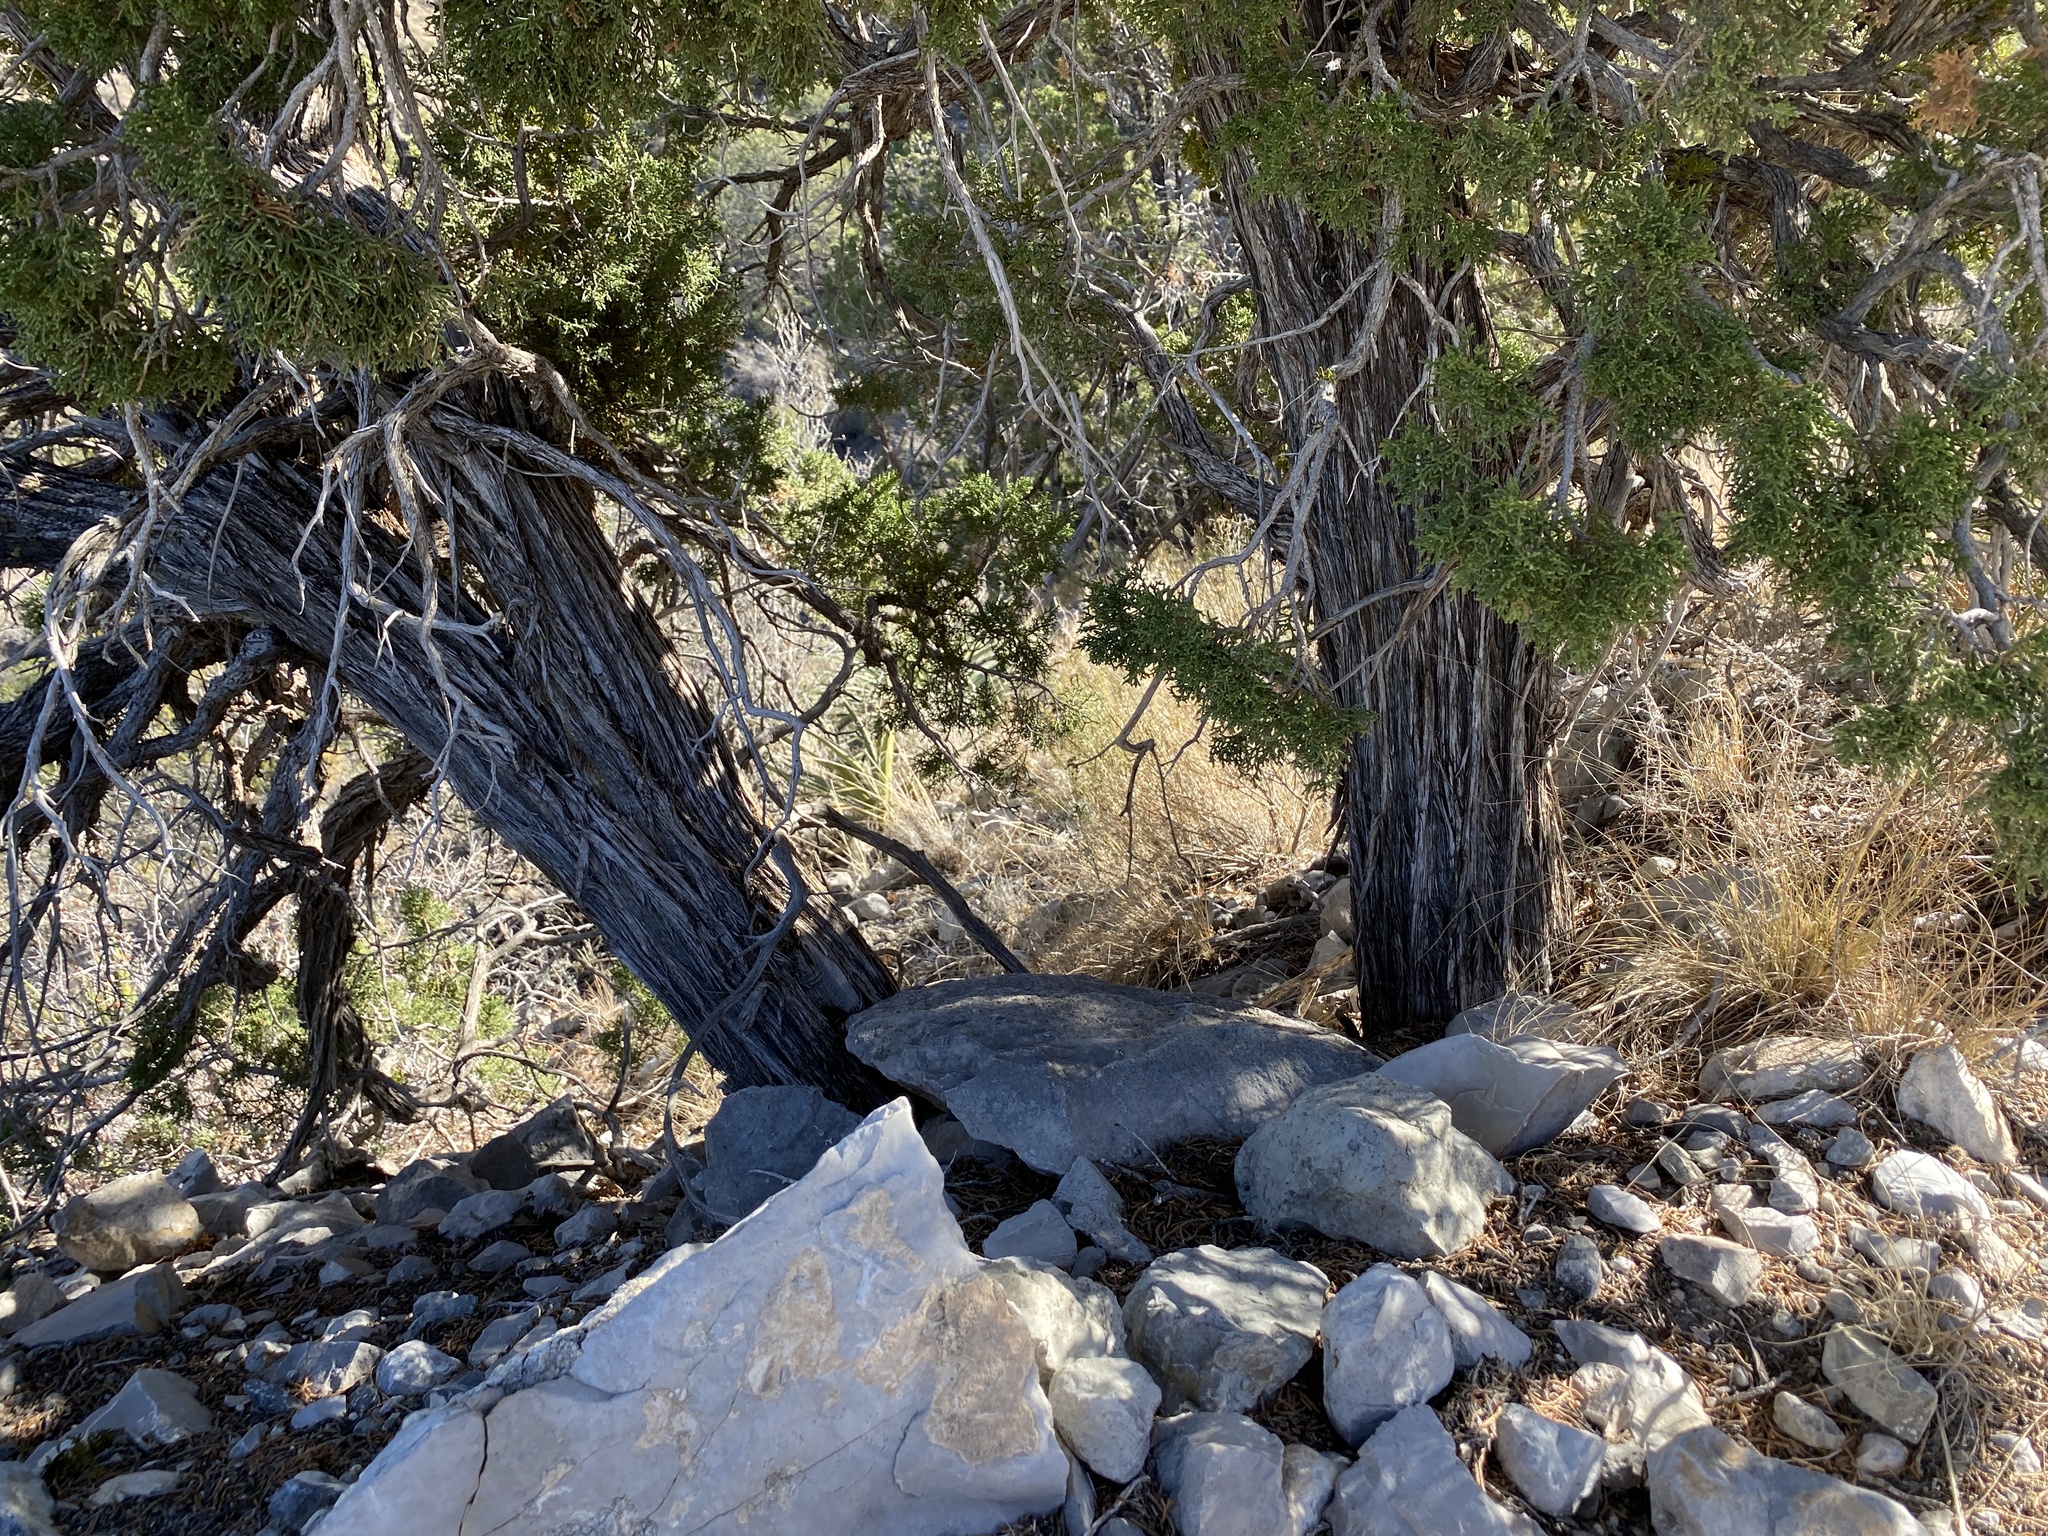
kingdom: Plantae
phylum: Tracheophyta
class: Pinopsida
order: Pinales
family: Cupressaceae
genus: Juniperus
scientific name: Juniperus monosperma
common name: One-seed juniper
